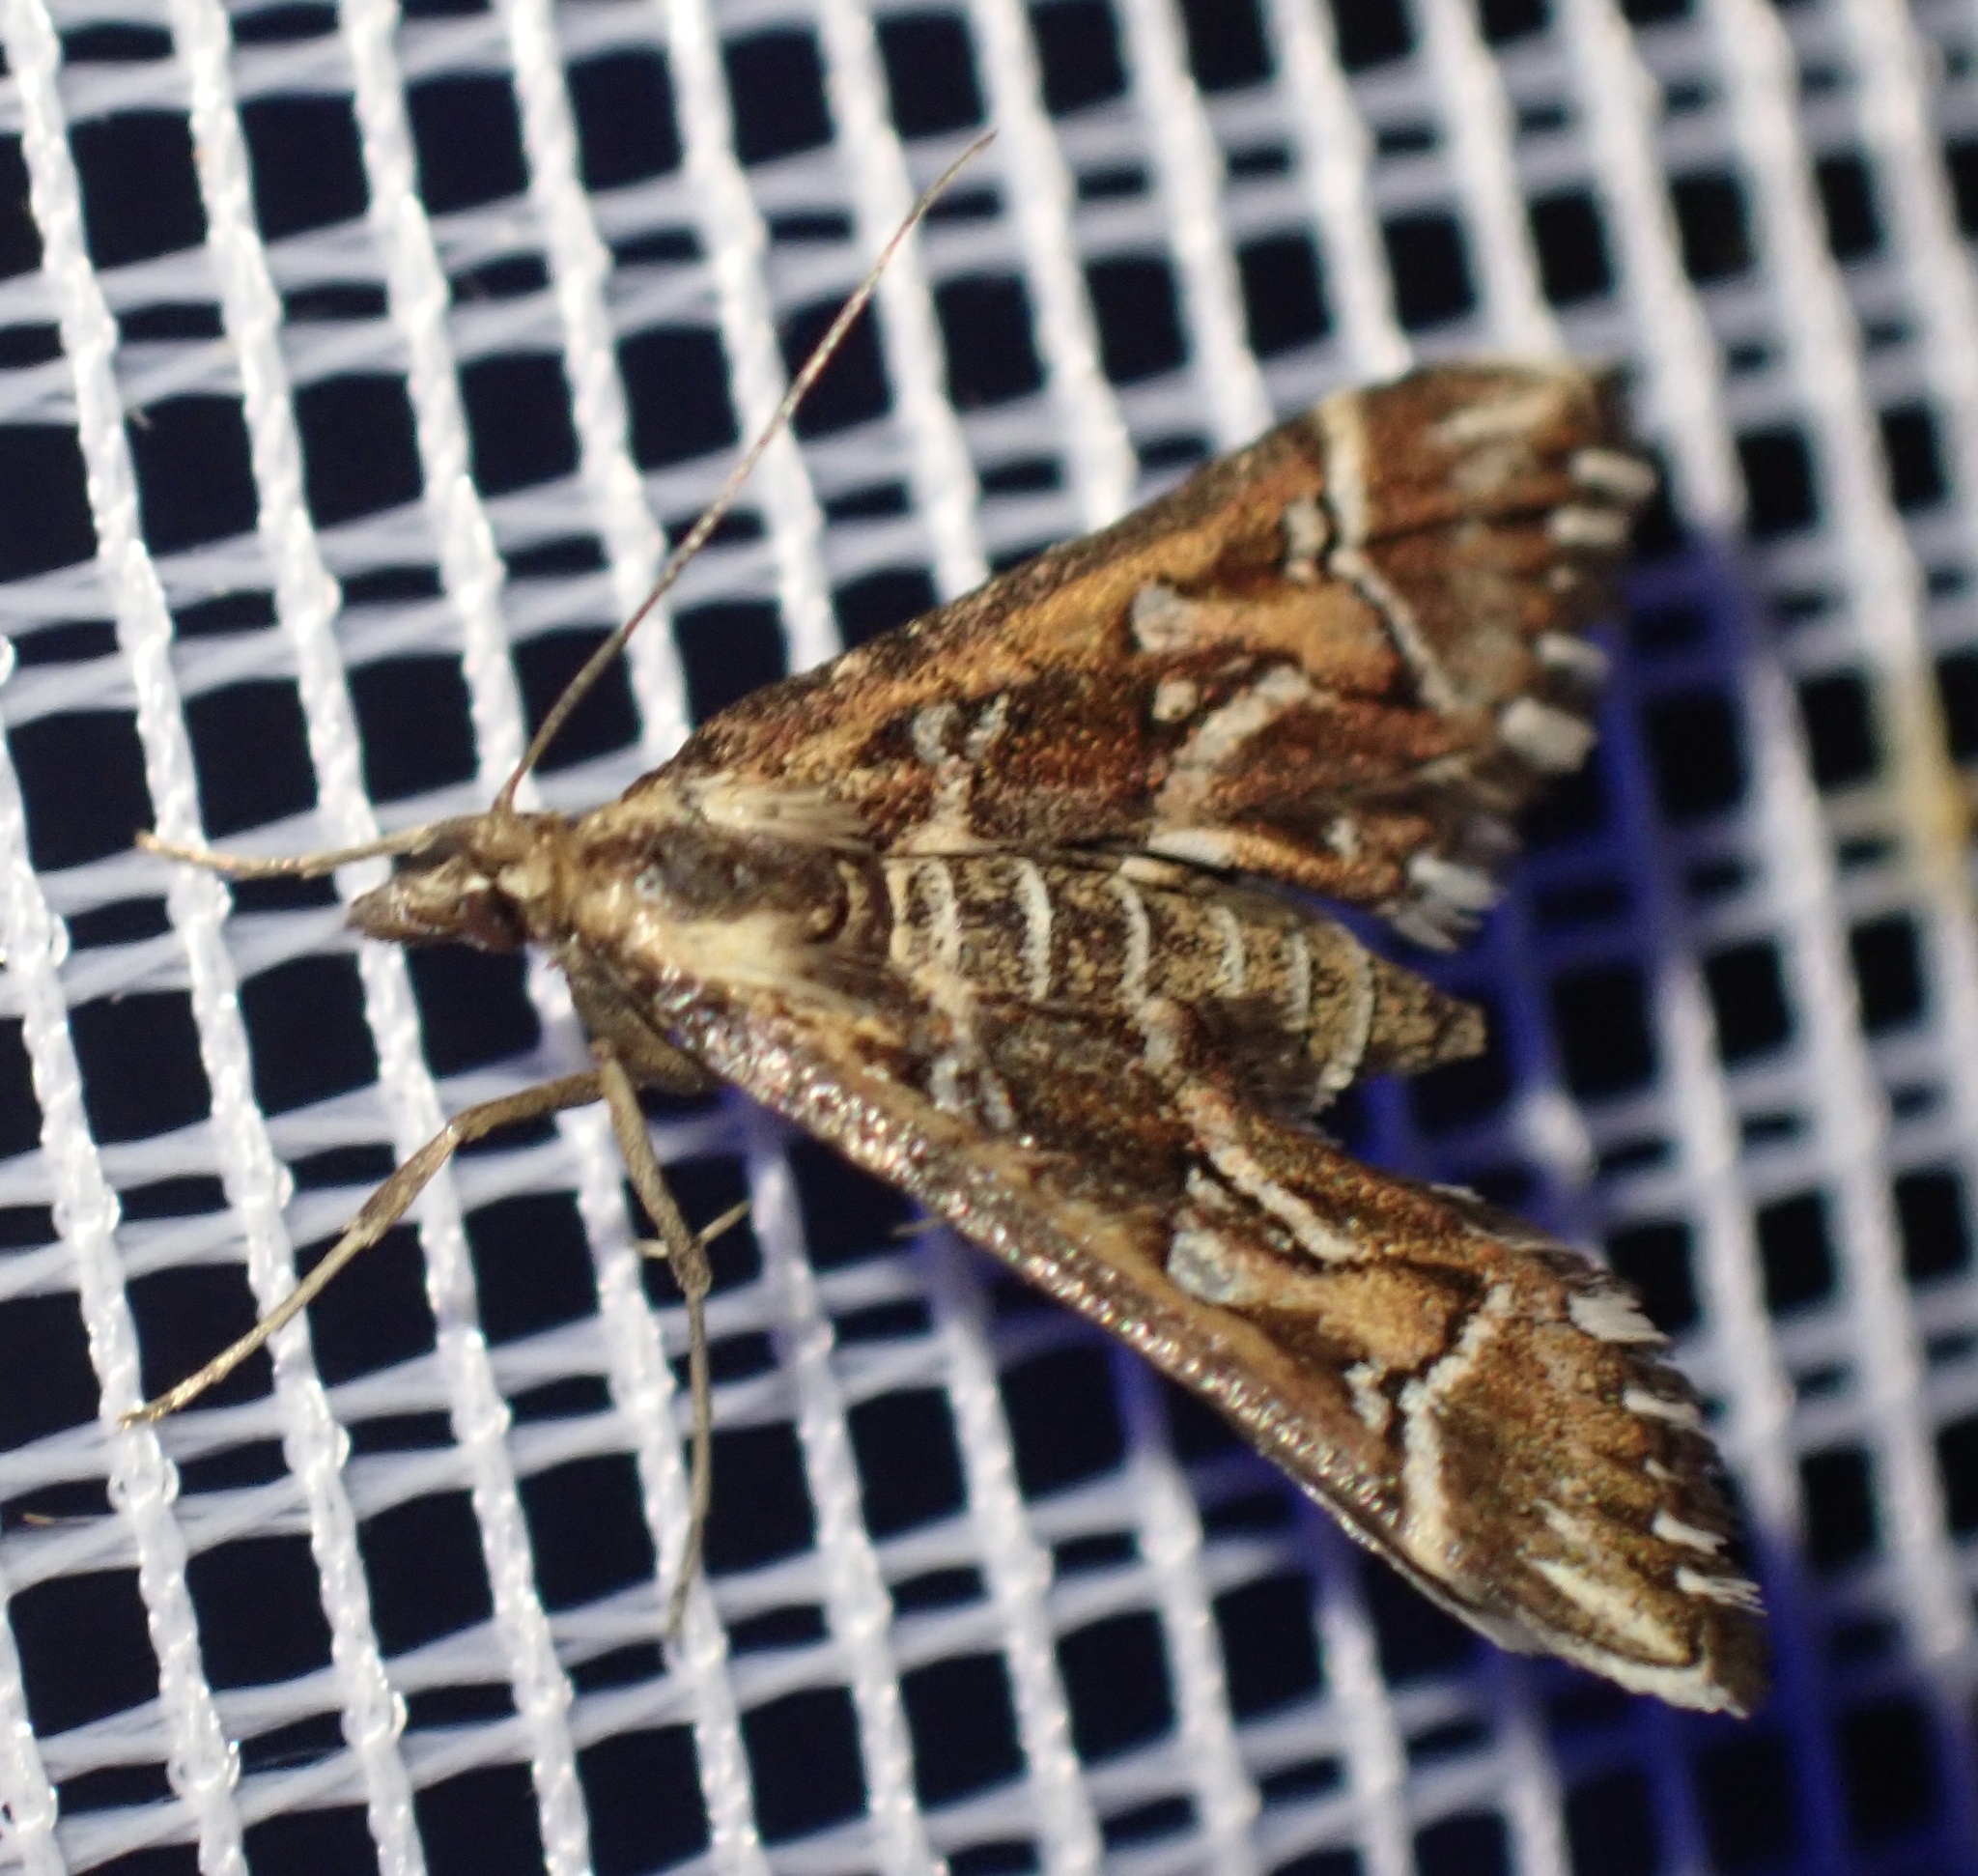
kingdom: Animalia
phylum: Arthropoda
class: Insecta
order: Lepidoptera
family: Crambidae
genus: Diasemia
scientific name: Diasemia reticularis
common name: Lettered china-mark
